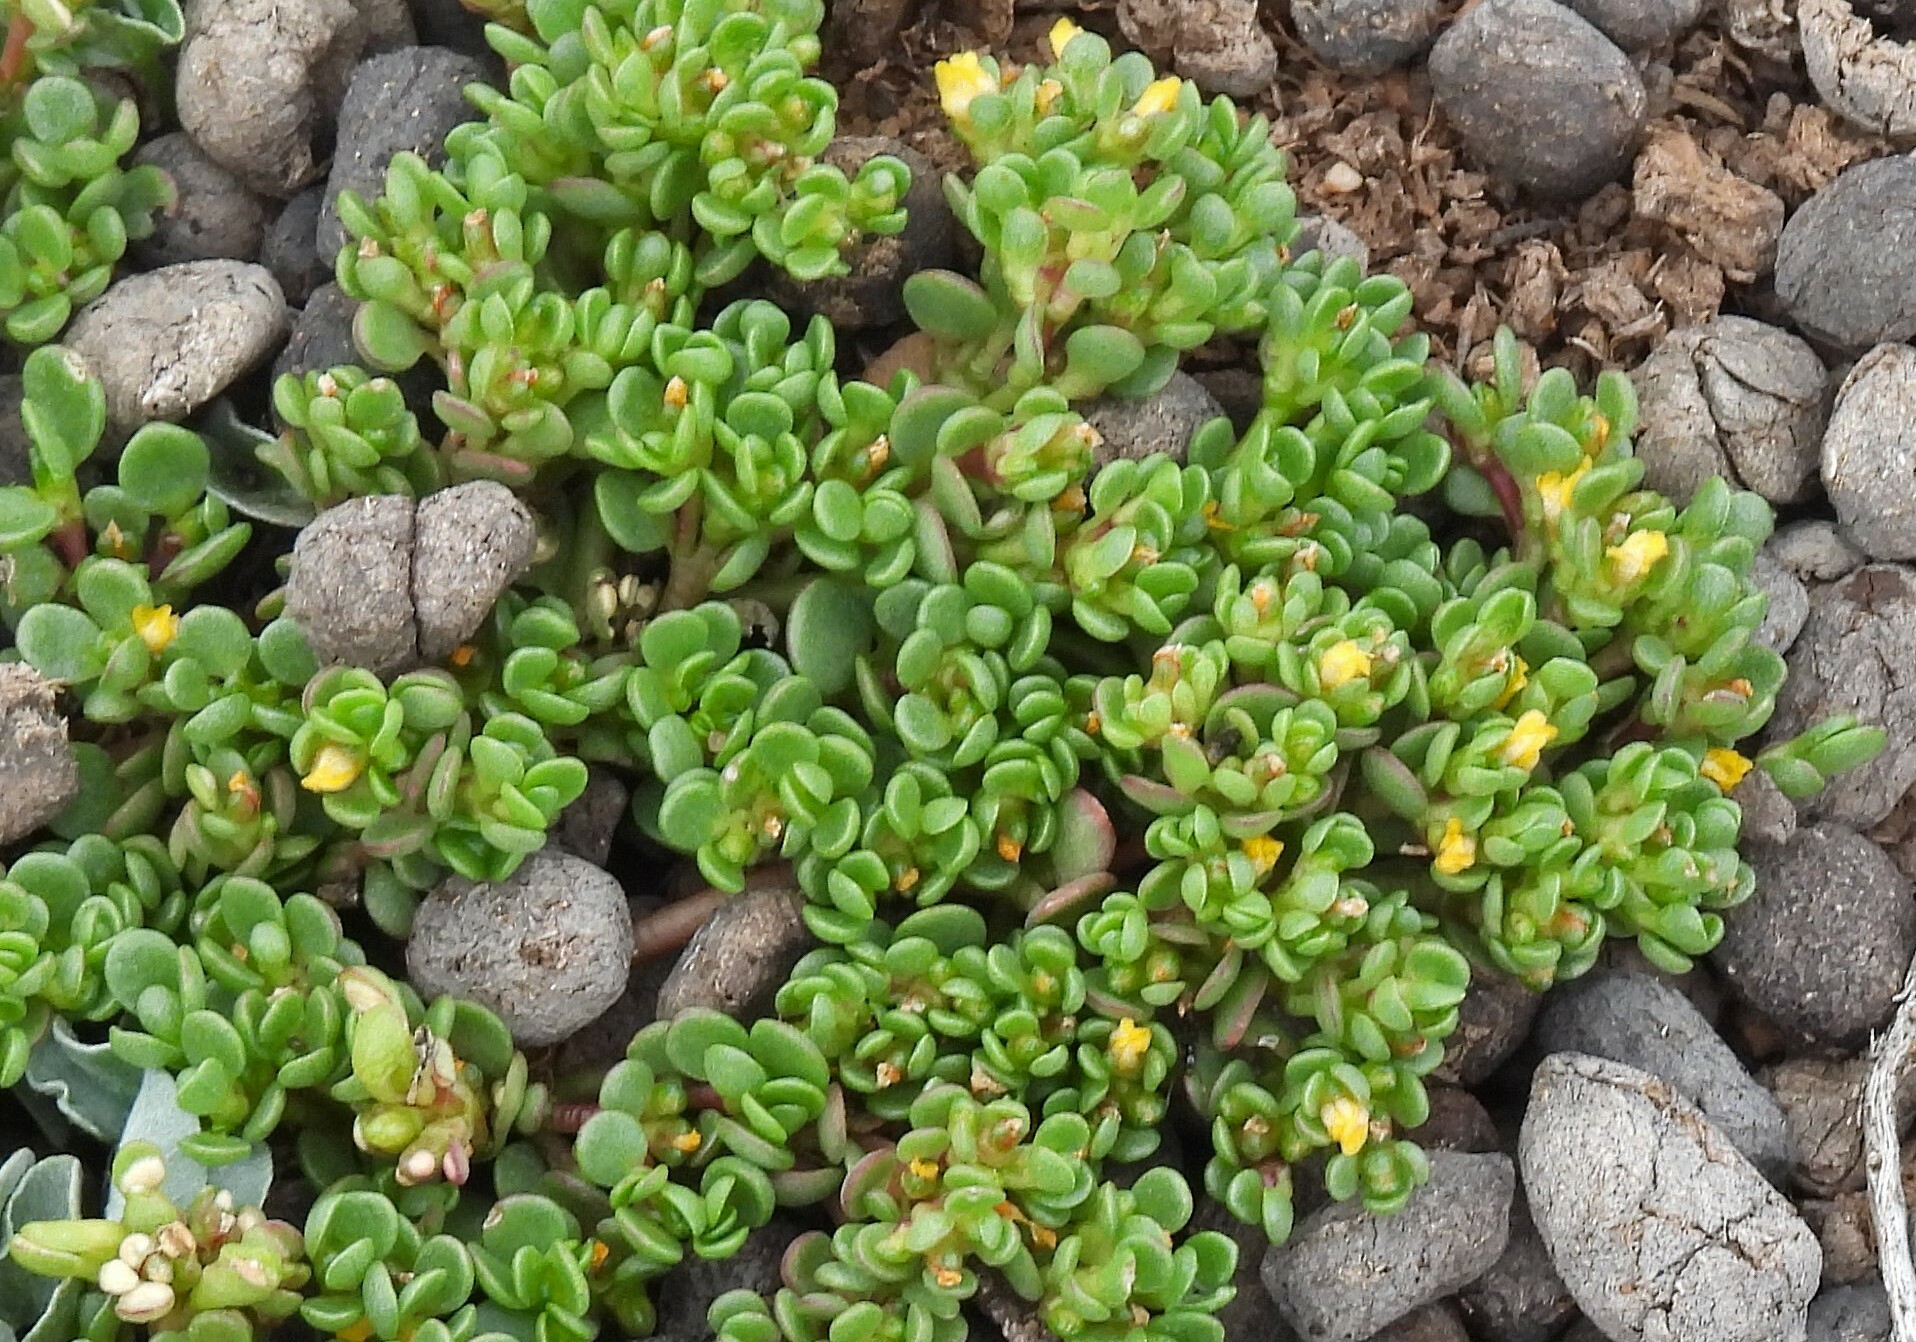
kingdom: Plantae
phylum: Tracheophyta
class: Magnoliopsida
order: Caryophyllales
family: Portulacaceae
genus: Portulaca
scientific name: Portulaca rotundifolia
